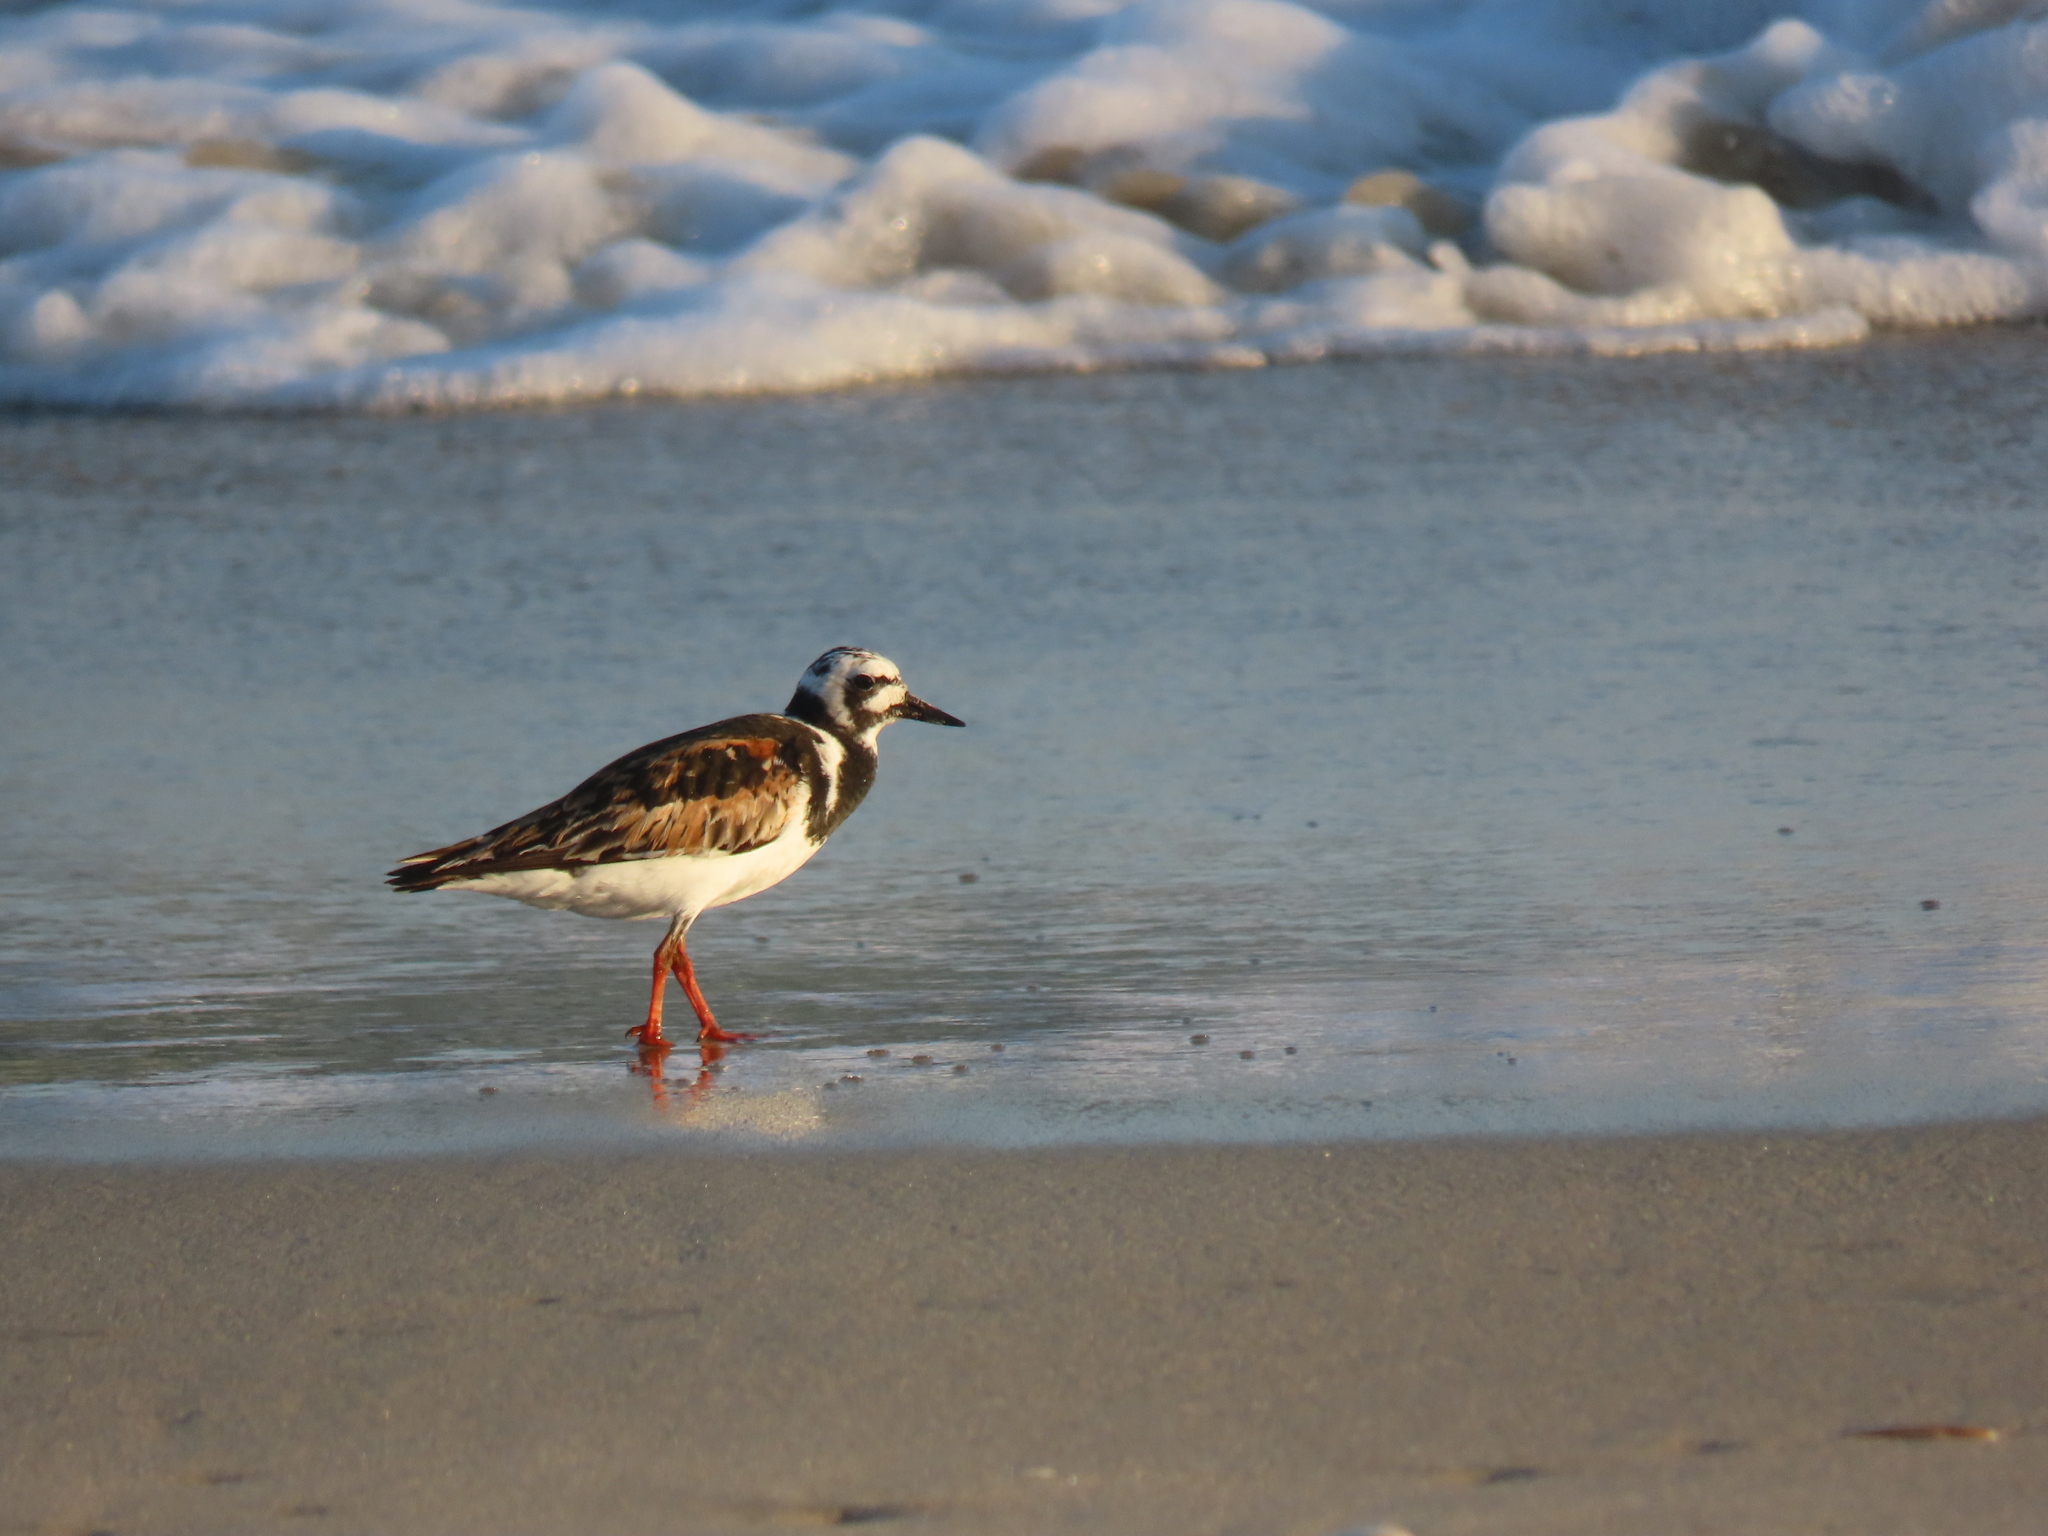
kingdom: Animalia
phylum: Chordata
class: Aves
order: Charadriiformes
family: Scolopacidae
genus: Arenaria
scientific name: Arenaria interpres
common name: Ruddy turnstone
